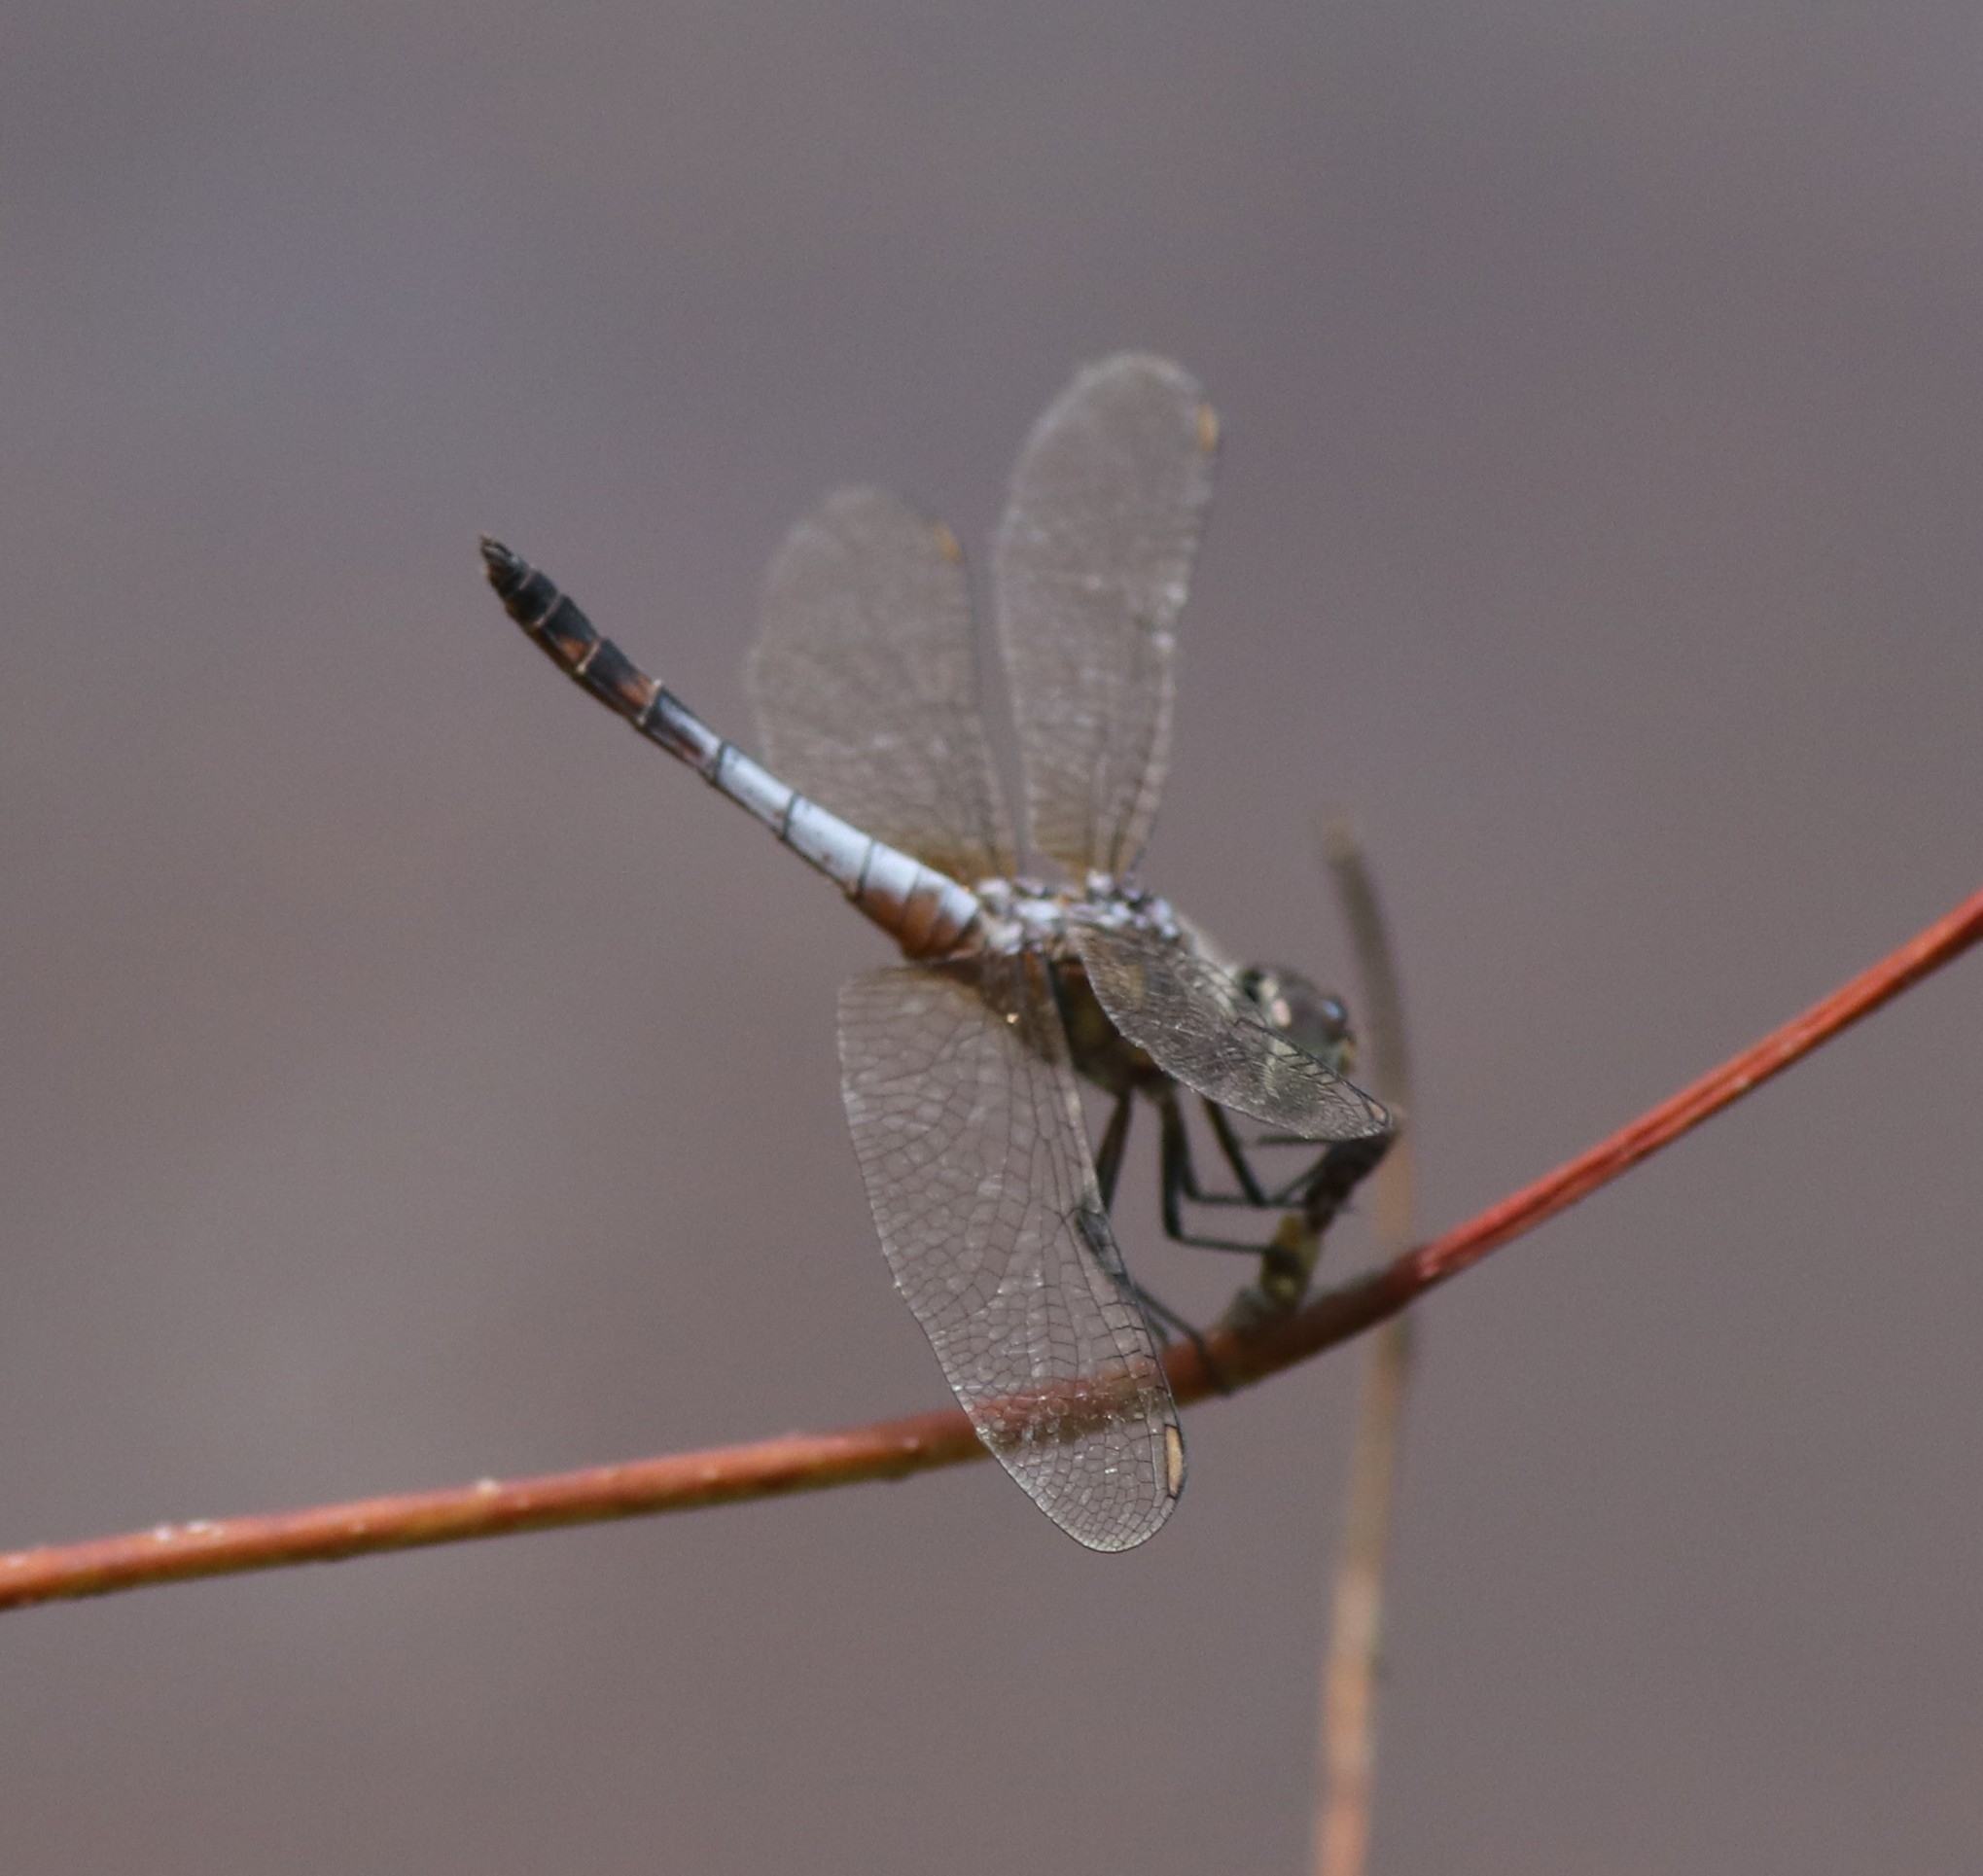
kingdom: Animalia
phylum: Arthropoda
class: Insecta
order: Odonata
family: Libellulidae
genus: Brachydiplax
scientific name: Brachydiplax chalybea
